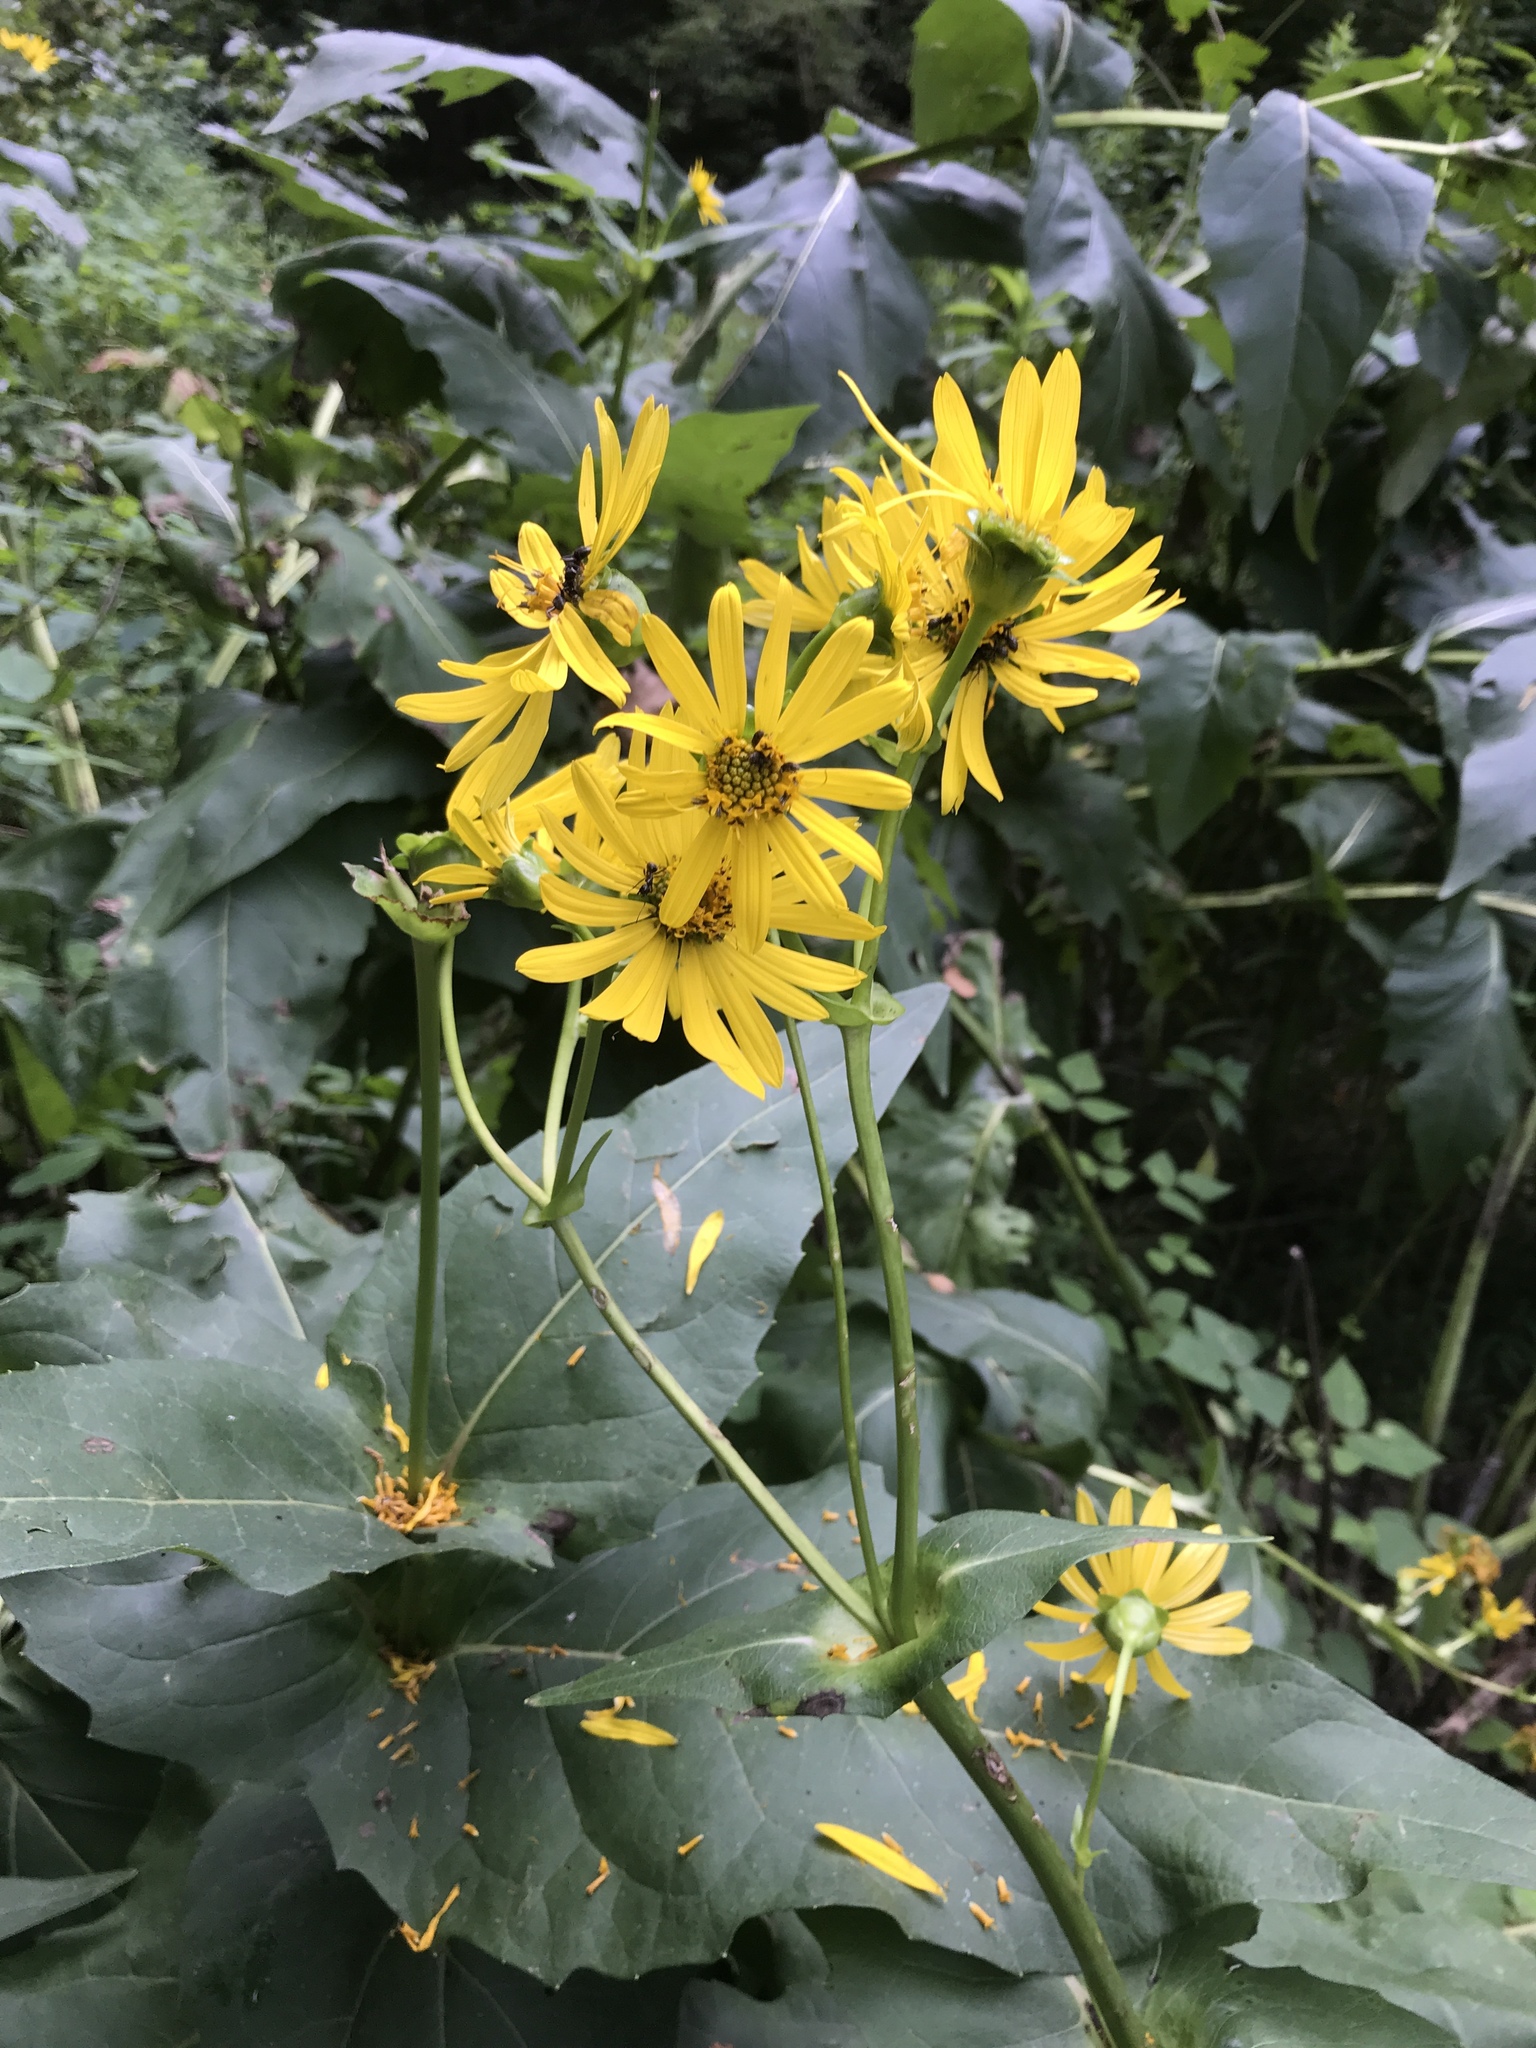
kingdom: Plantae
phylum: Tracheophyta
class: Magnoliopsida
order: Asterales
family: Asteraceae
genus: Silphium
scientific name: Silphium perfoliatum
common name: Cup-plant
